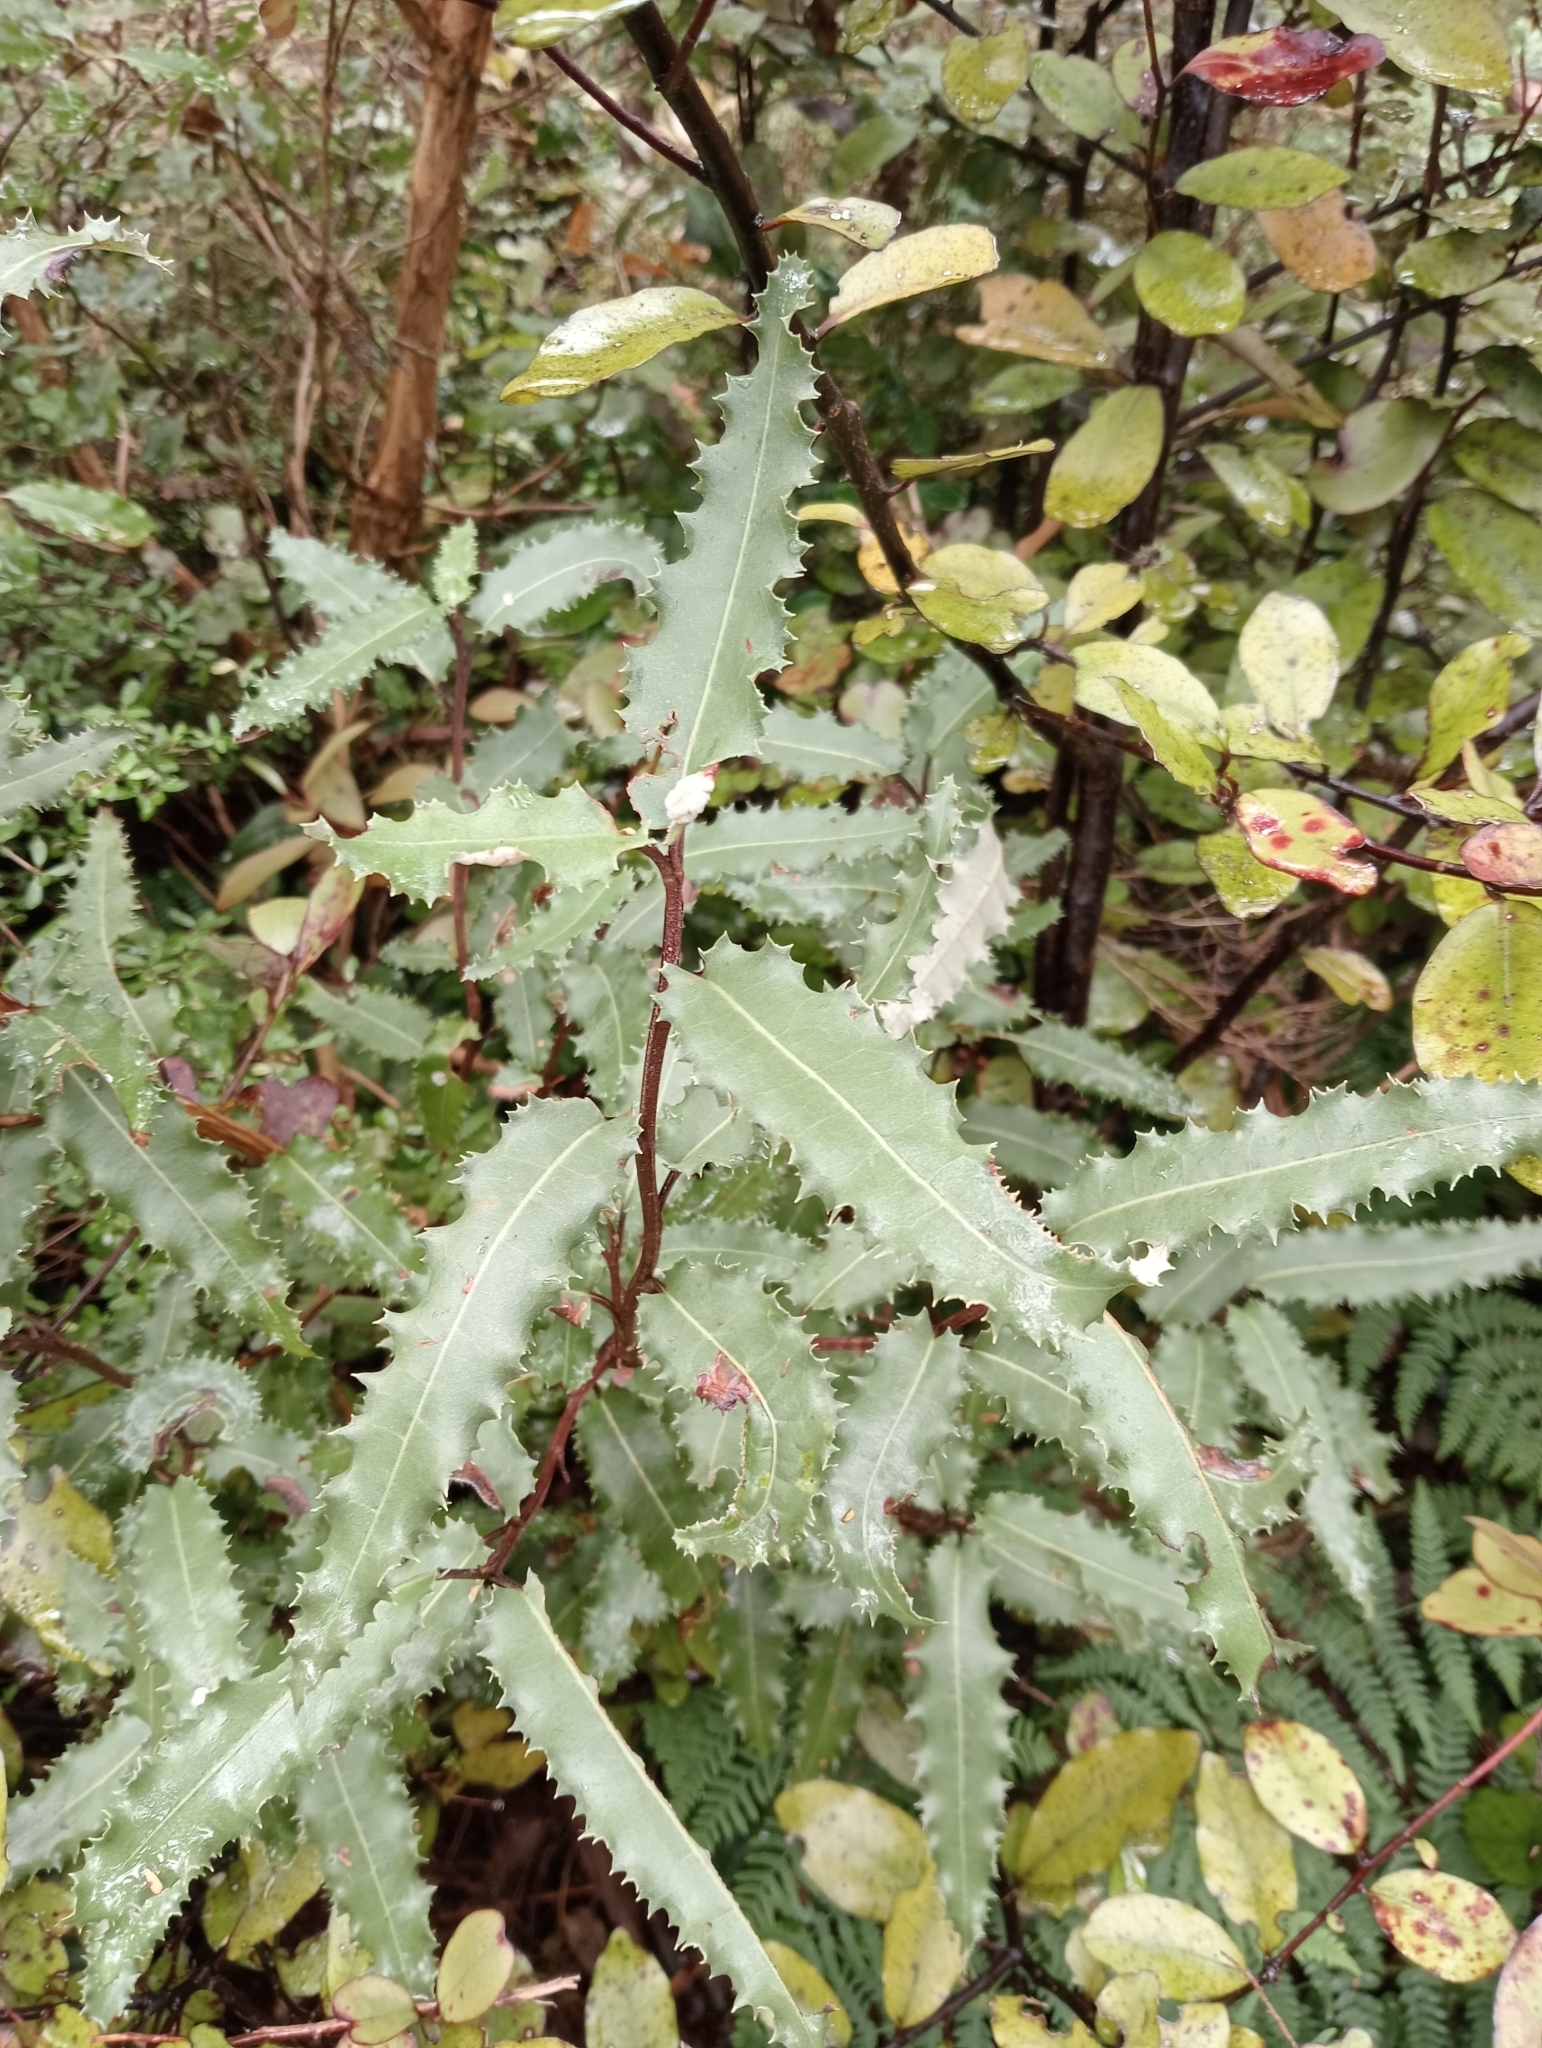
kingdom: Plantae
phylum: Tracheophyta
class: Magnoliopsida
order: Asterales
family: Asteraceae
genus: Olearia
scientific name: Olearia ilicifolia
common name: Maori-holly
